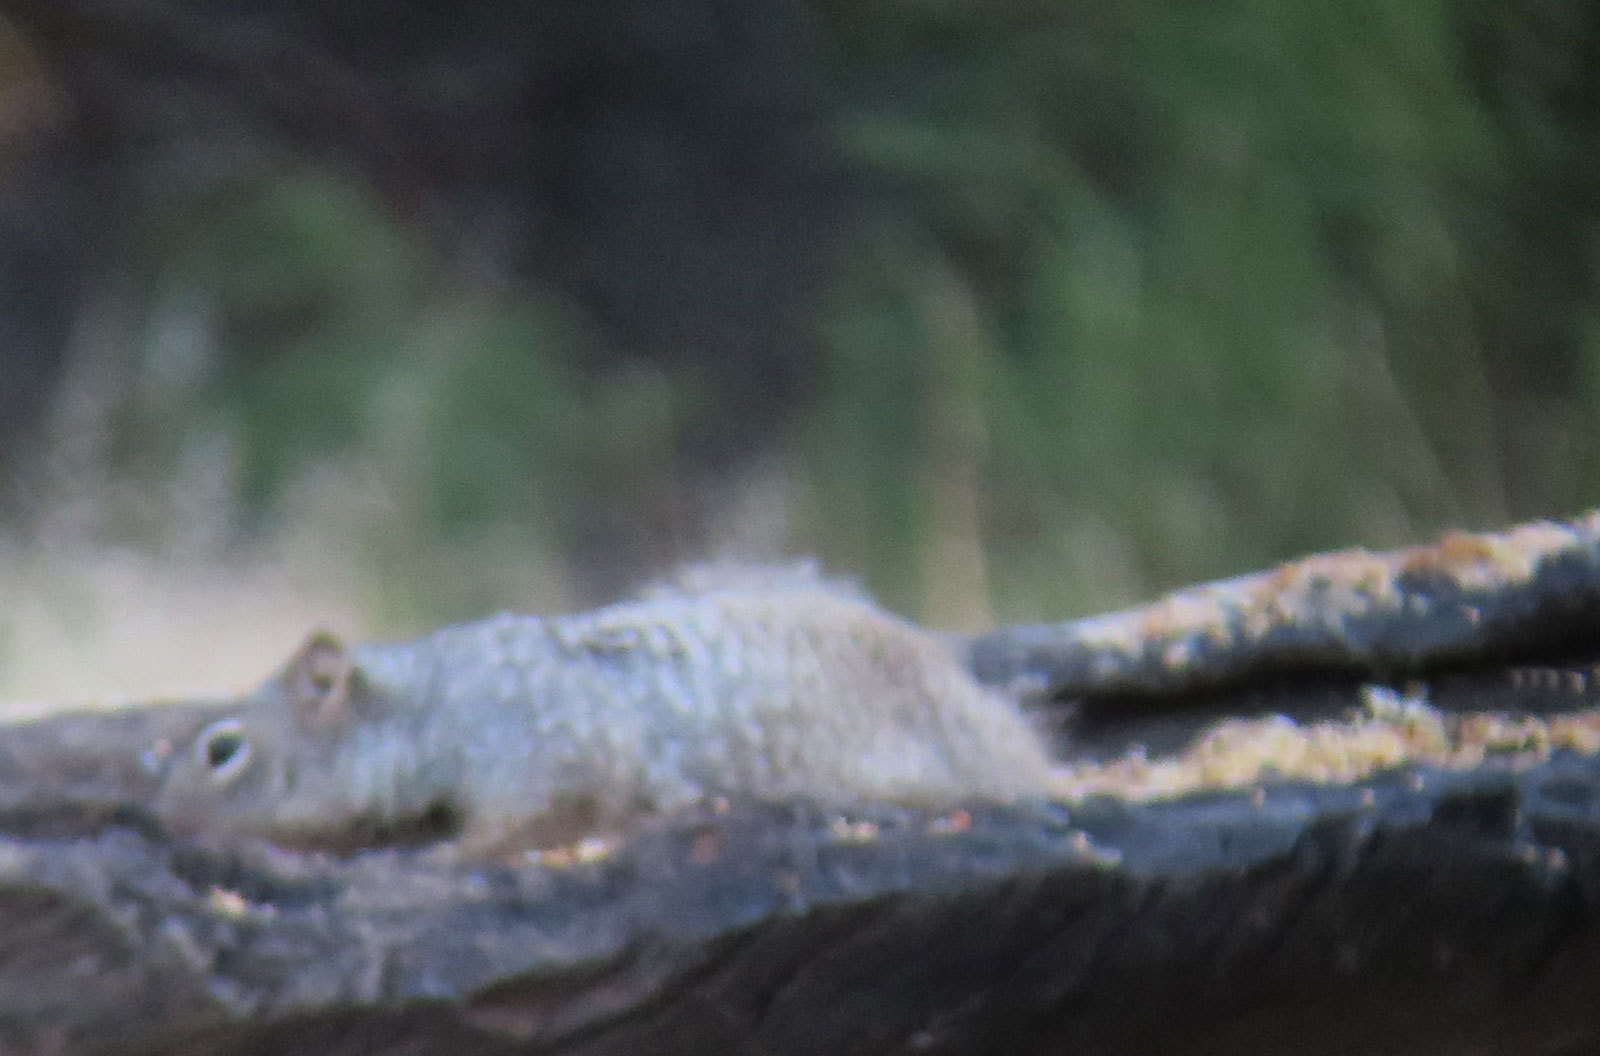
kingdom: Animalia
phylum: Chordata
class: Mammalia
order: Rodentia
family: Sciuridae
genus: Otospermophilus
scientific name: Otospermophilus variegatus
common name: Rock squirrel
